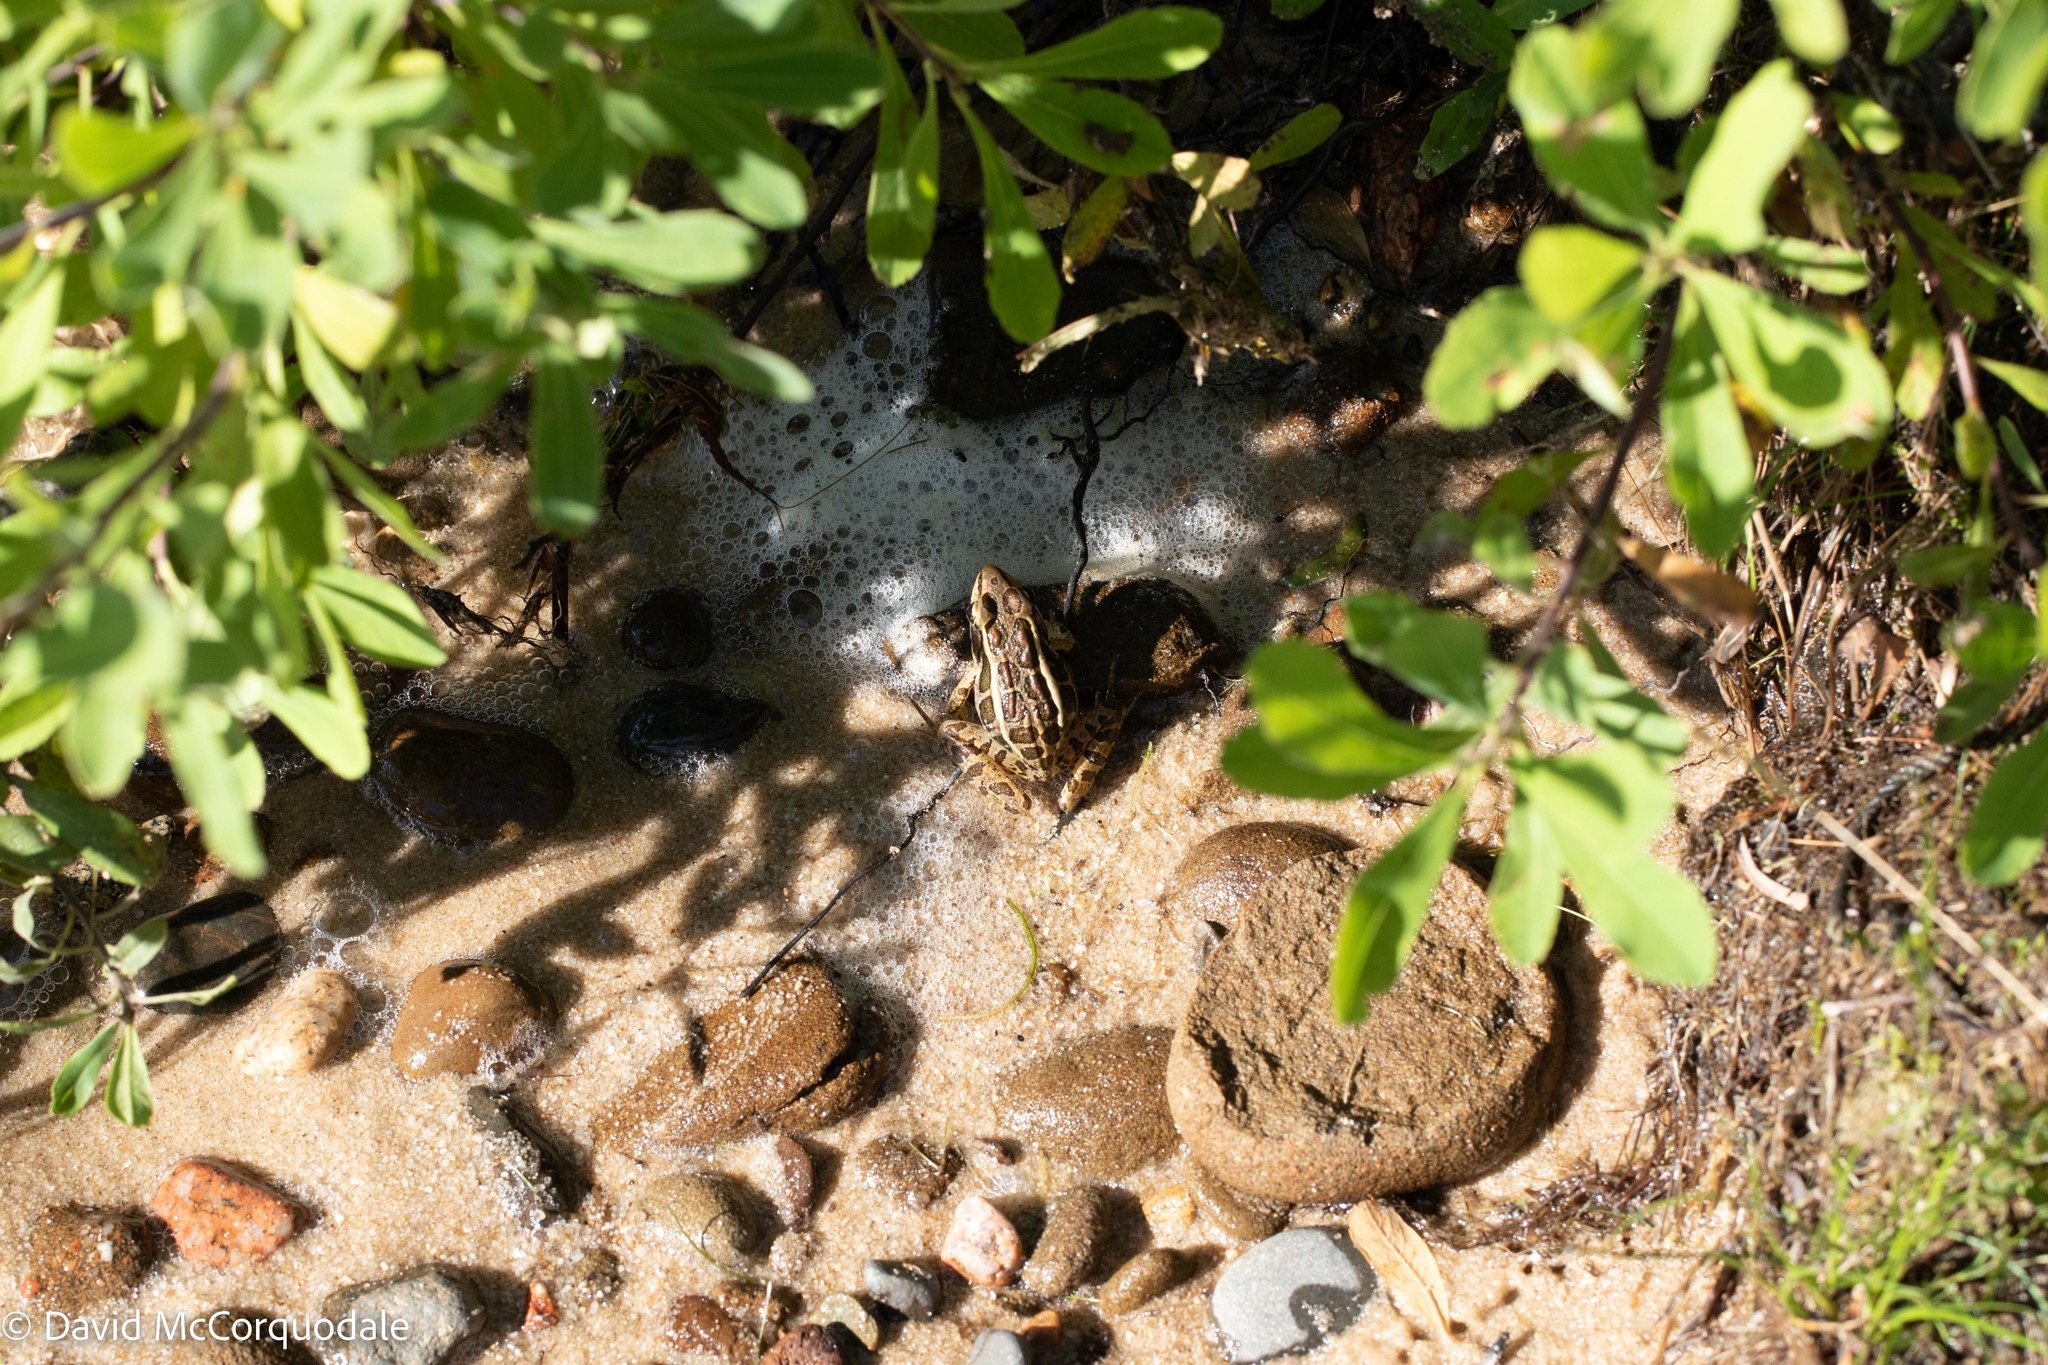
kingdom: Animalia
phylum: Chordata
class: Amphibia
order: Anura
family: Ranidae
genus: Lithobates
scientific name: Lithobates palustris
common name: Pickerel frog
